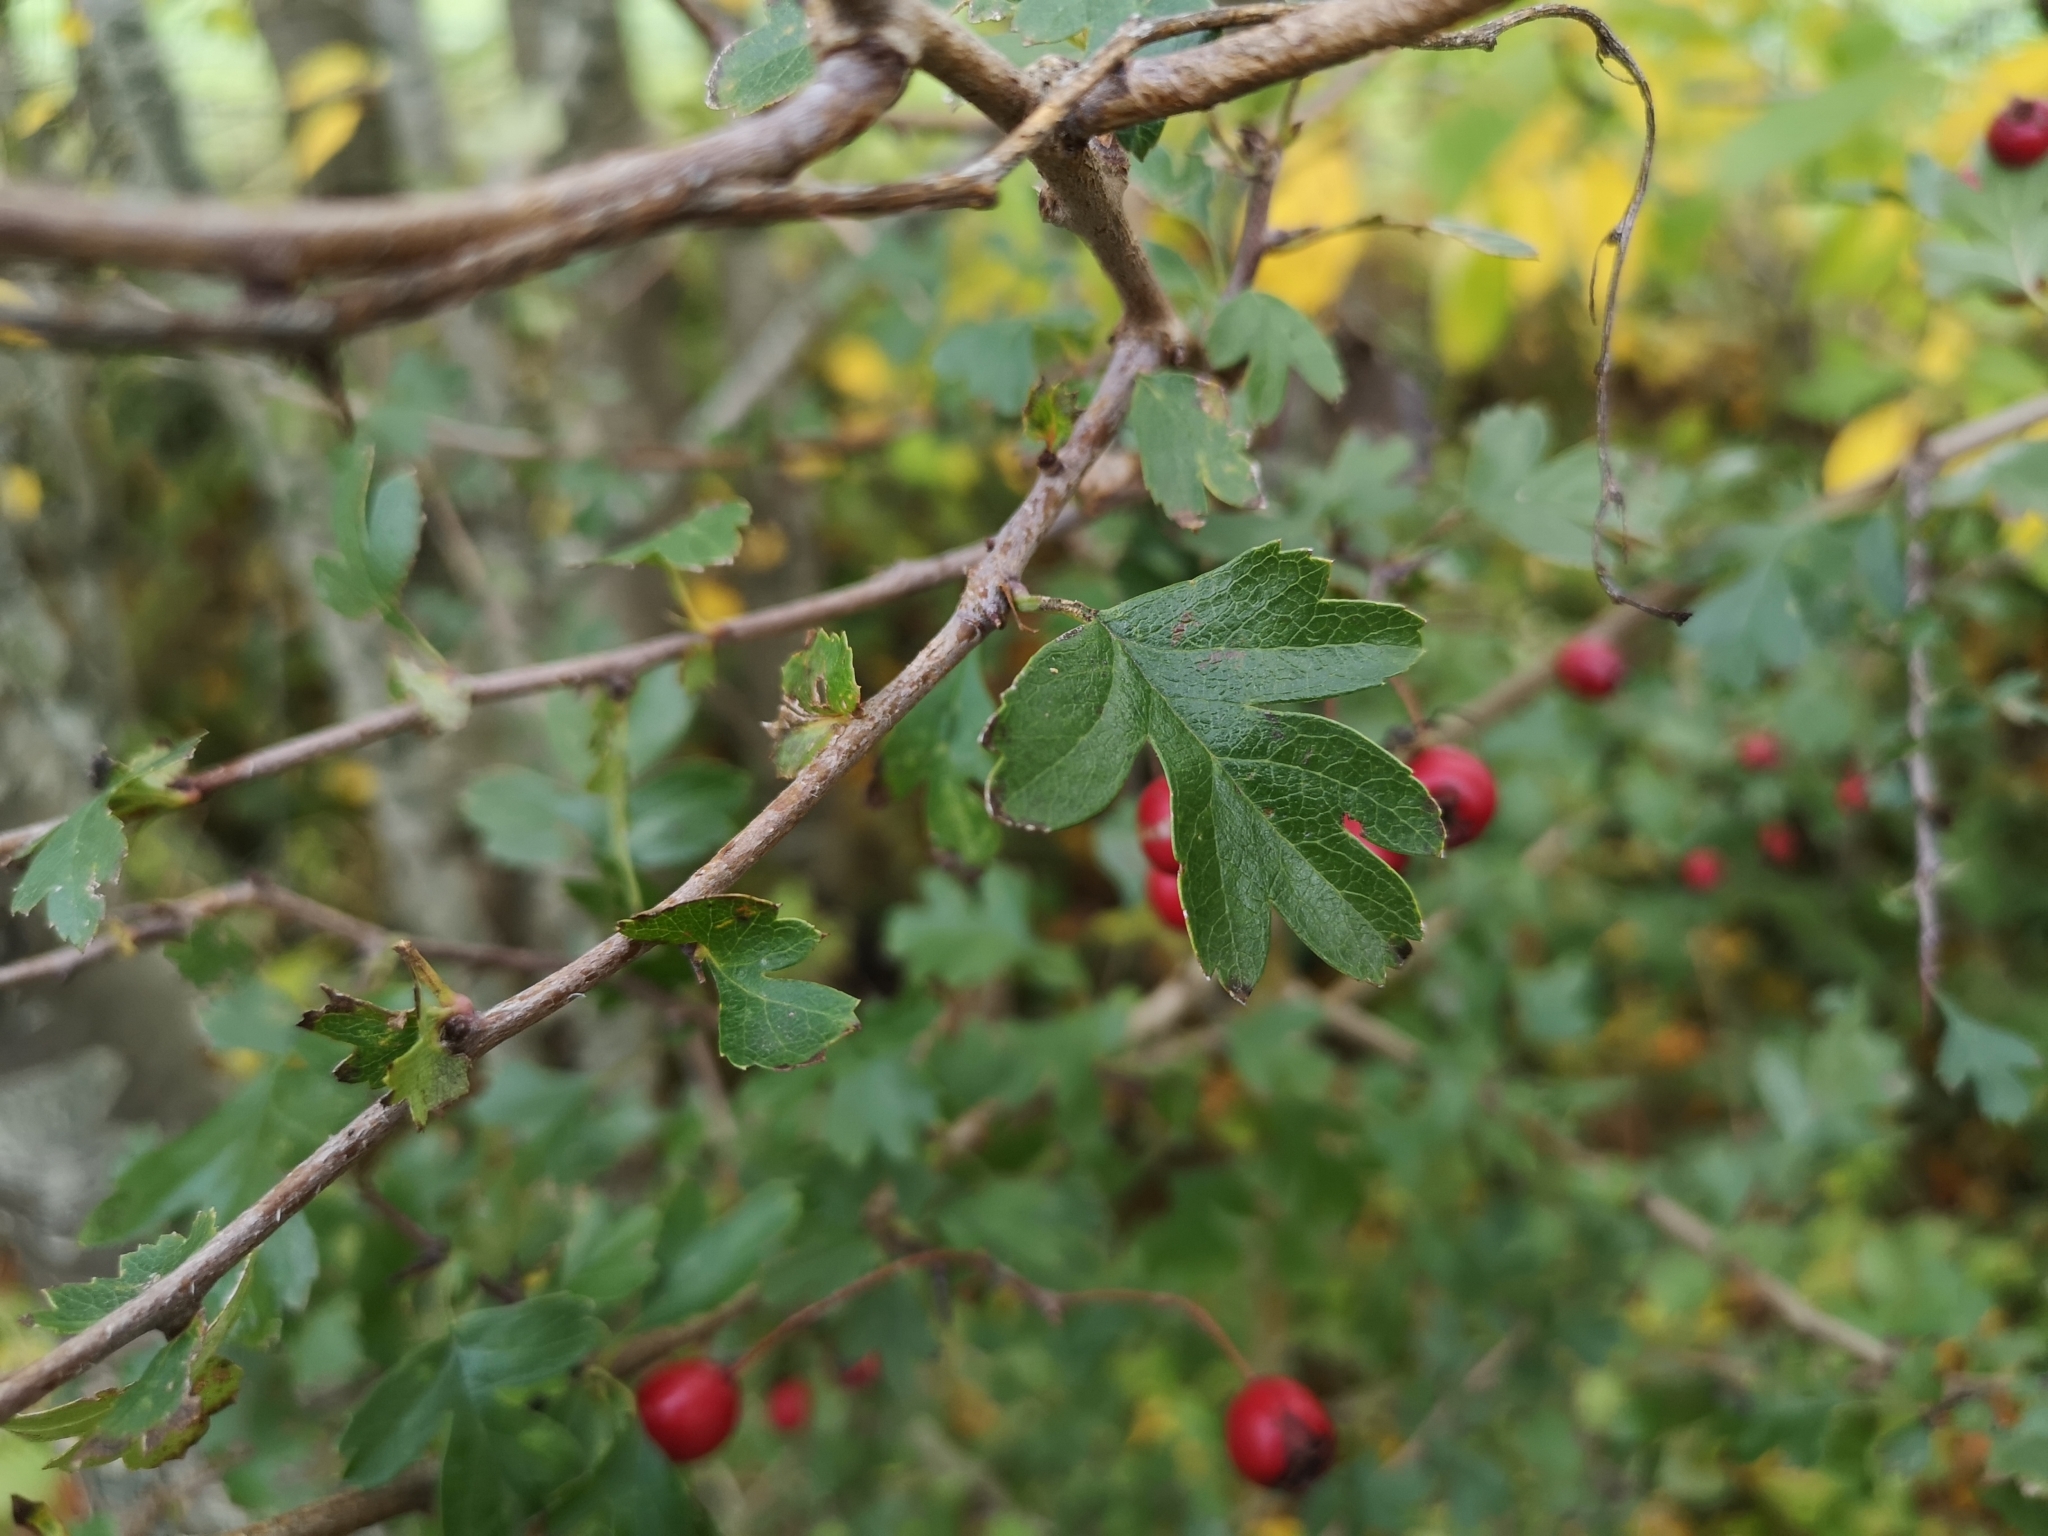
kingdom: Plantae
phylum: Tracheophyta
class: Magnoliopsida
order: Rosales
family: Rosaceae
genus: Crataegus
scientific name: Crataegus monogyna
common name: Hawthorn
